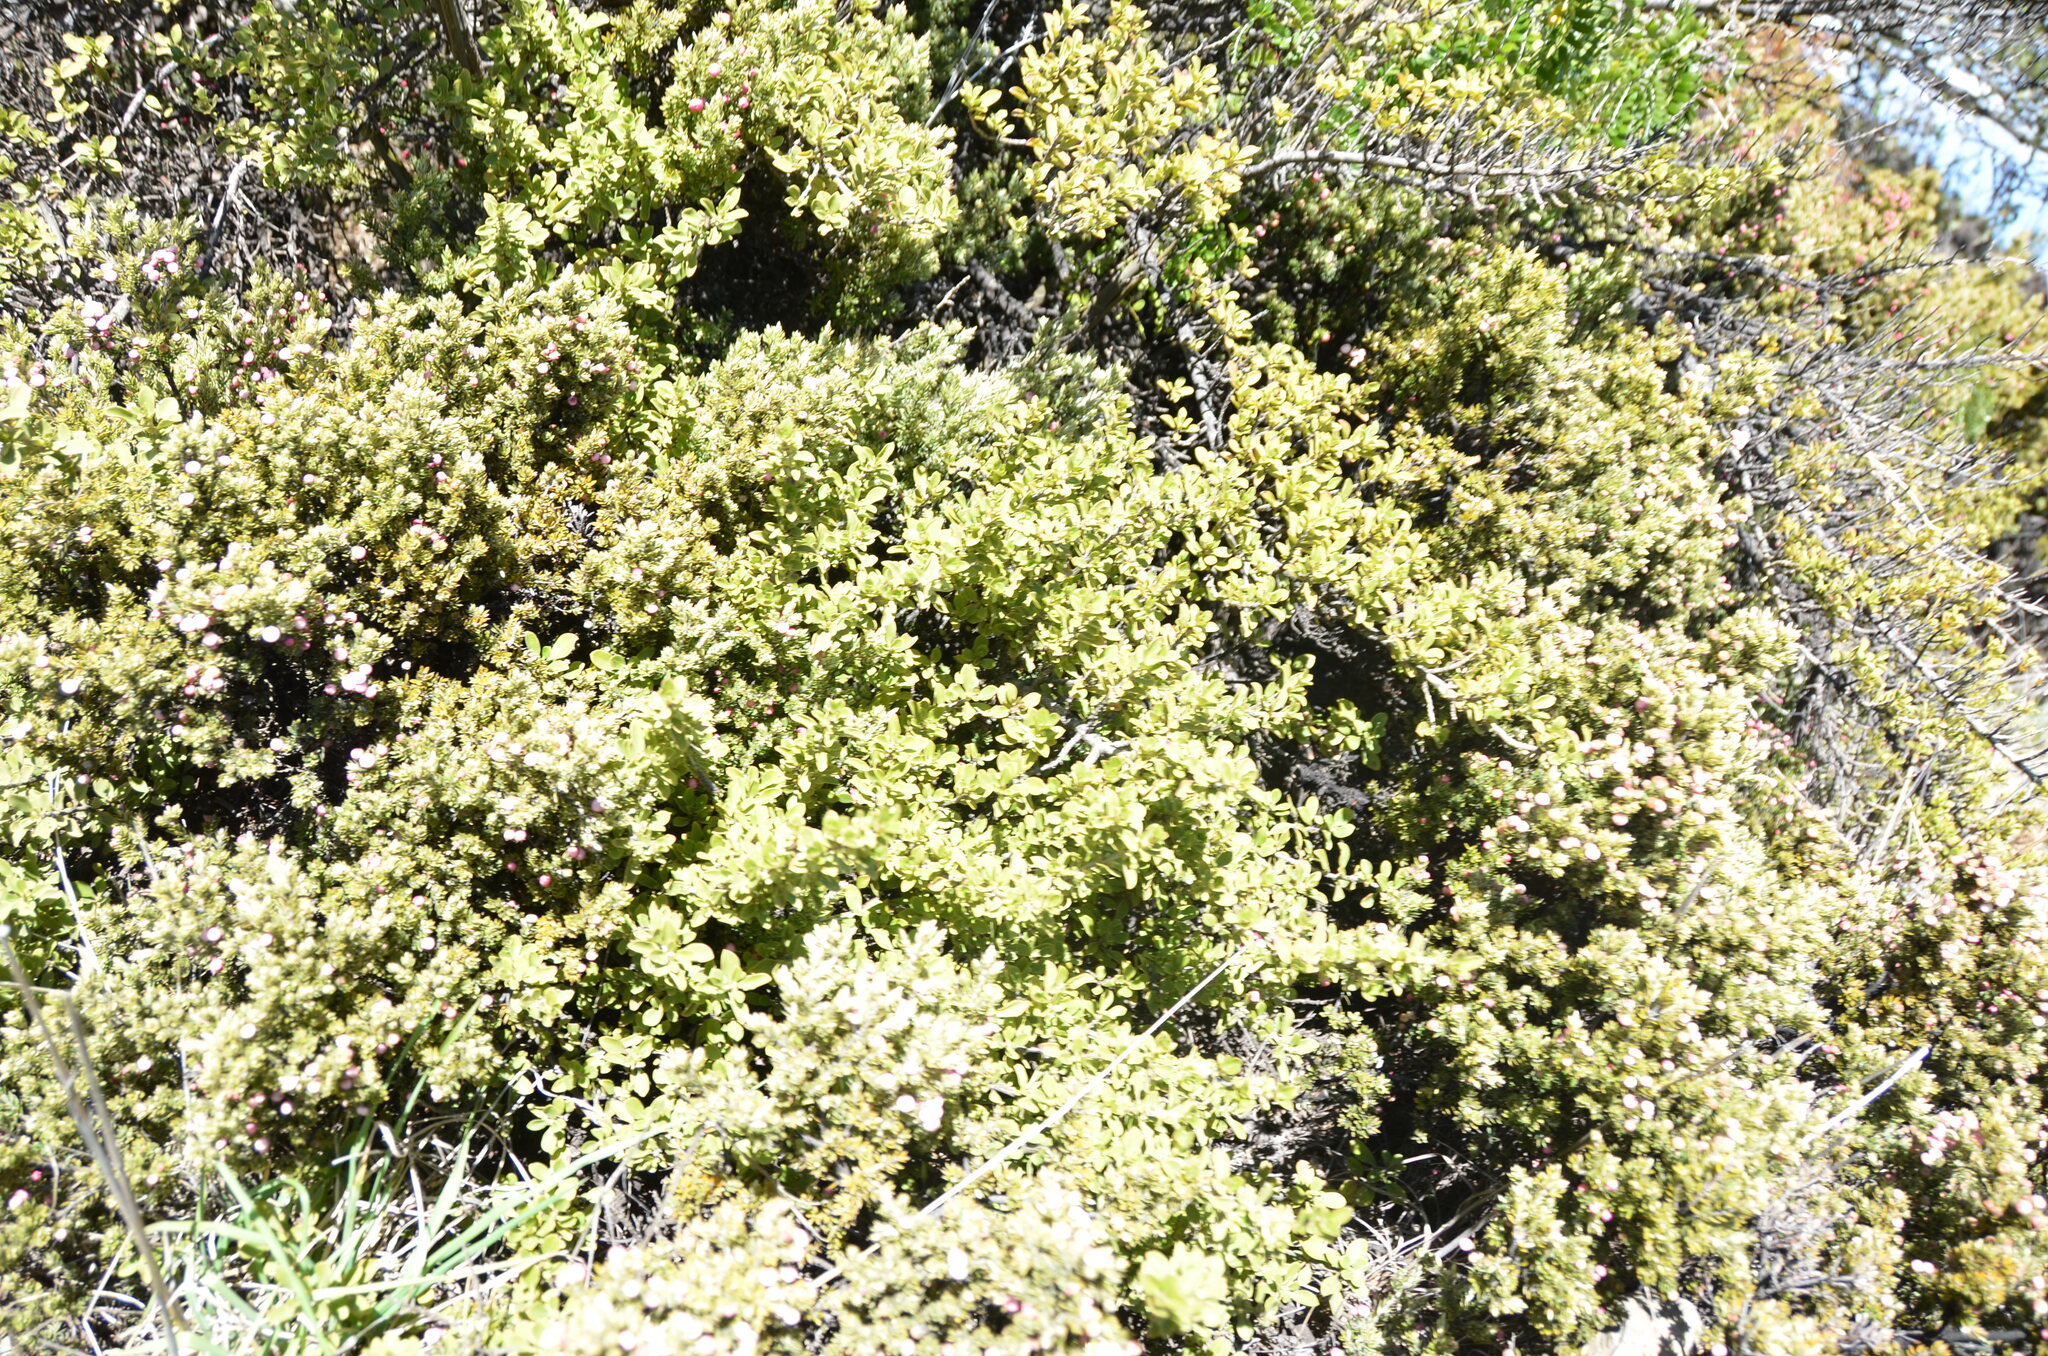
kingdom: Plantae
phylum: Tracheophyta
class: Magnoliopsida
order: Ericales
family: Ericaceae
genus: Leptecophylla
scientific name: Leptecophylla tameiameiae
